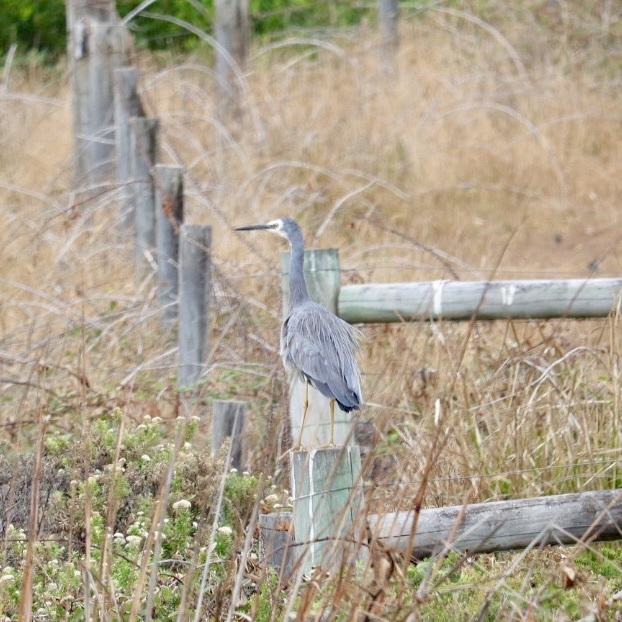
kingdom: Animalia
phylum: Chordata
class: Aves
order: Pelecaniformes
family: Ardeidae
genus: Egretta
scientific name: Egretta novaehollandiae
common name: White-faced heron
